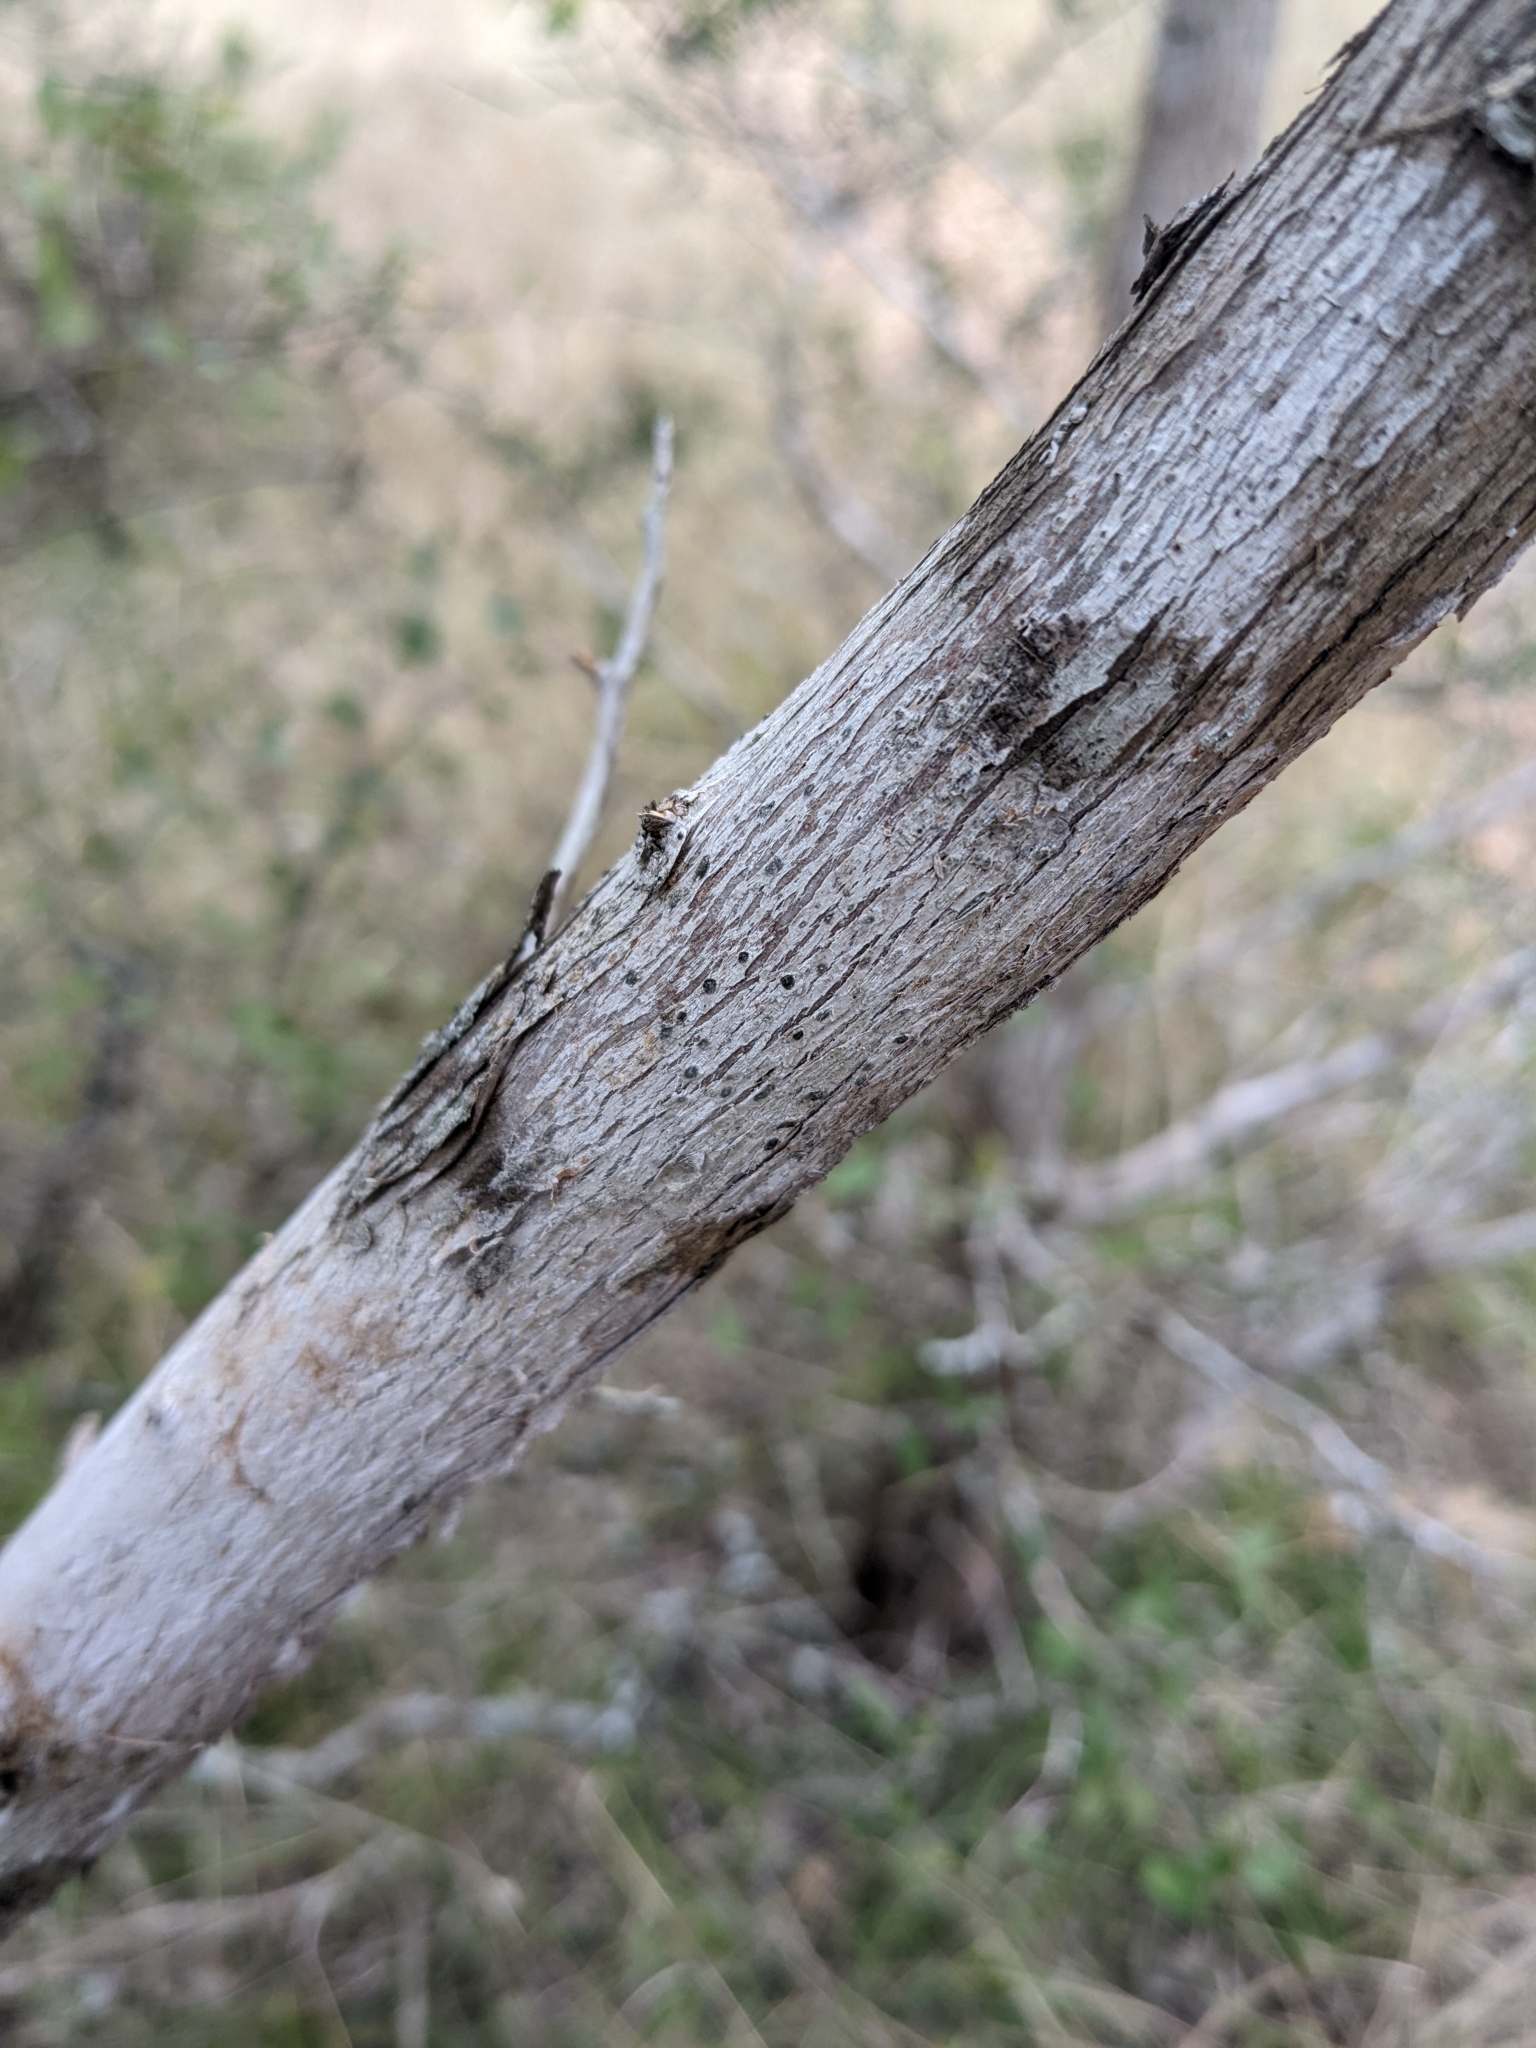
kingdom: Fungi
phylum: Ascomycota
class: Lecanoromycetes
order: Ostropales
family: Stictidaceae
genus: Robergea
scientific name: Robergea
